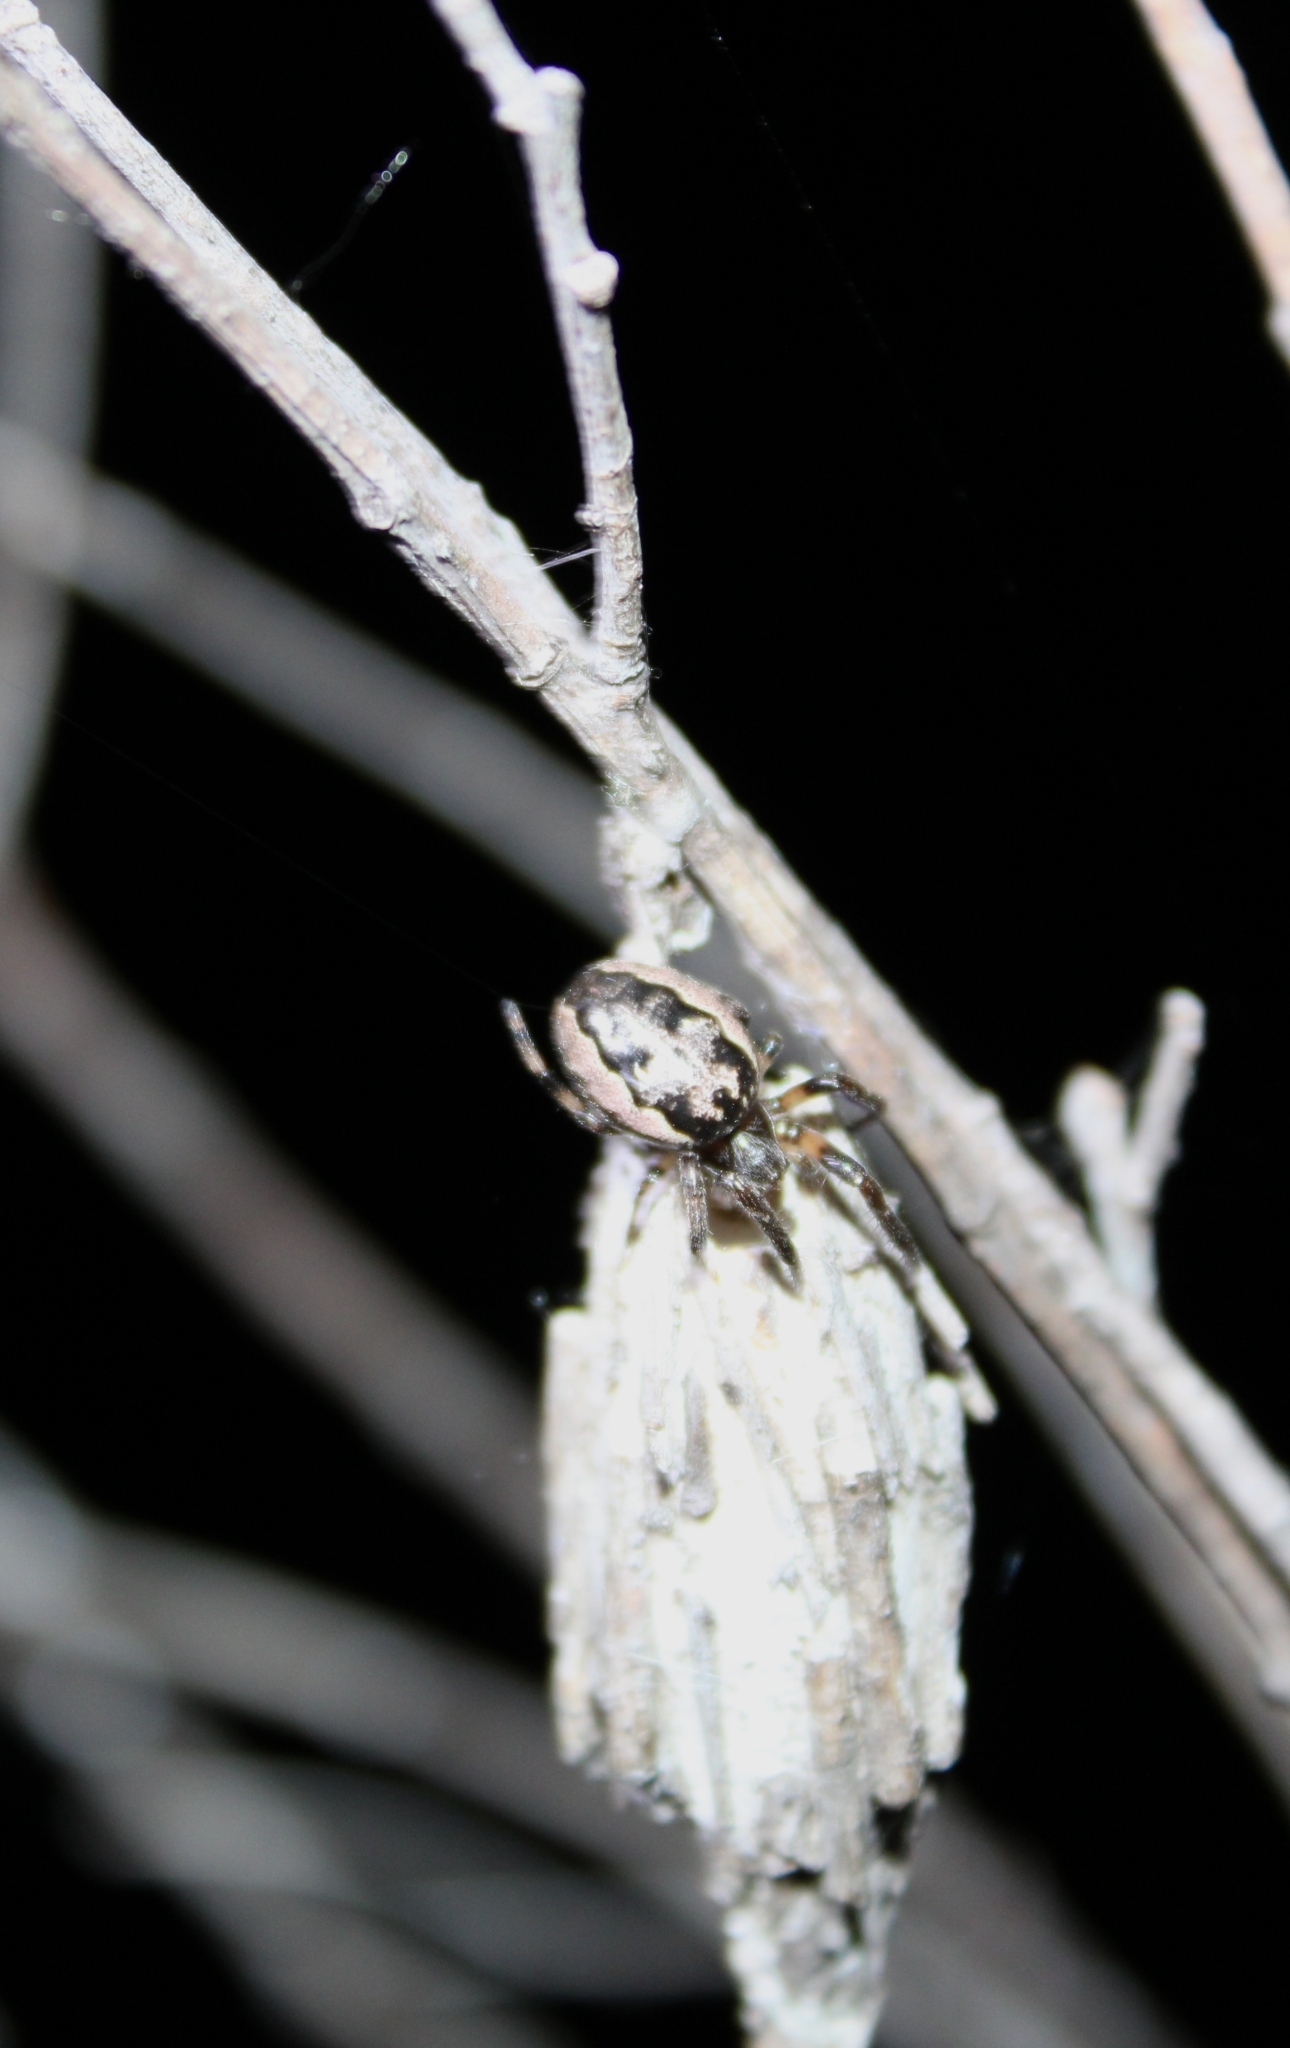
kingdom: Animalia
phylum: Arthropoda
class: Arachnida
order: Araneae
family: Araneidae
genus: Larinioides
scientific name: Larinioides cornutus
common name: Furrow orbweaver
